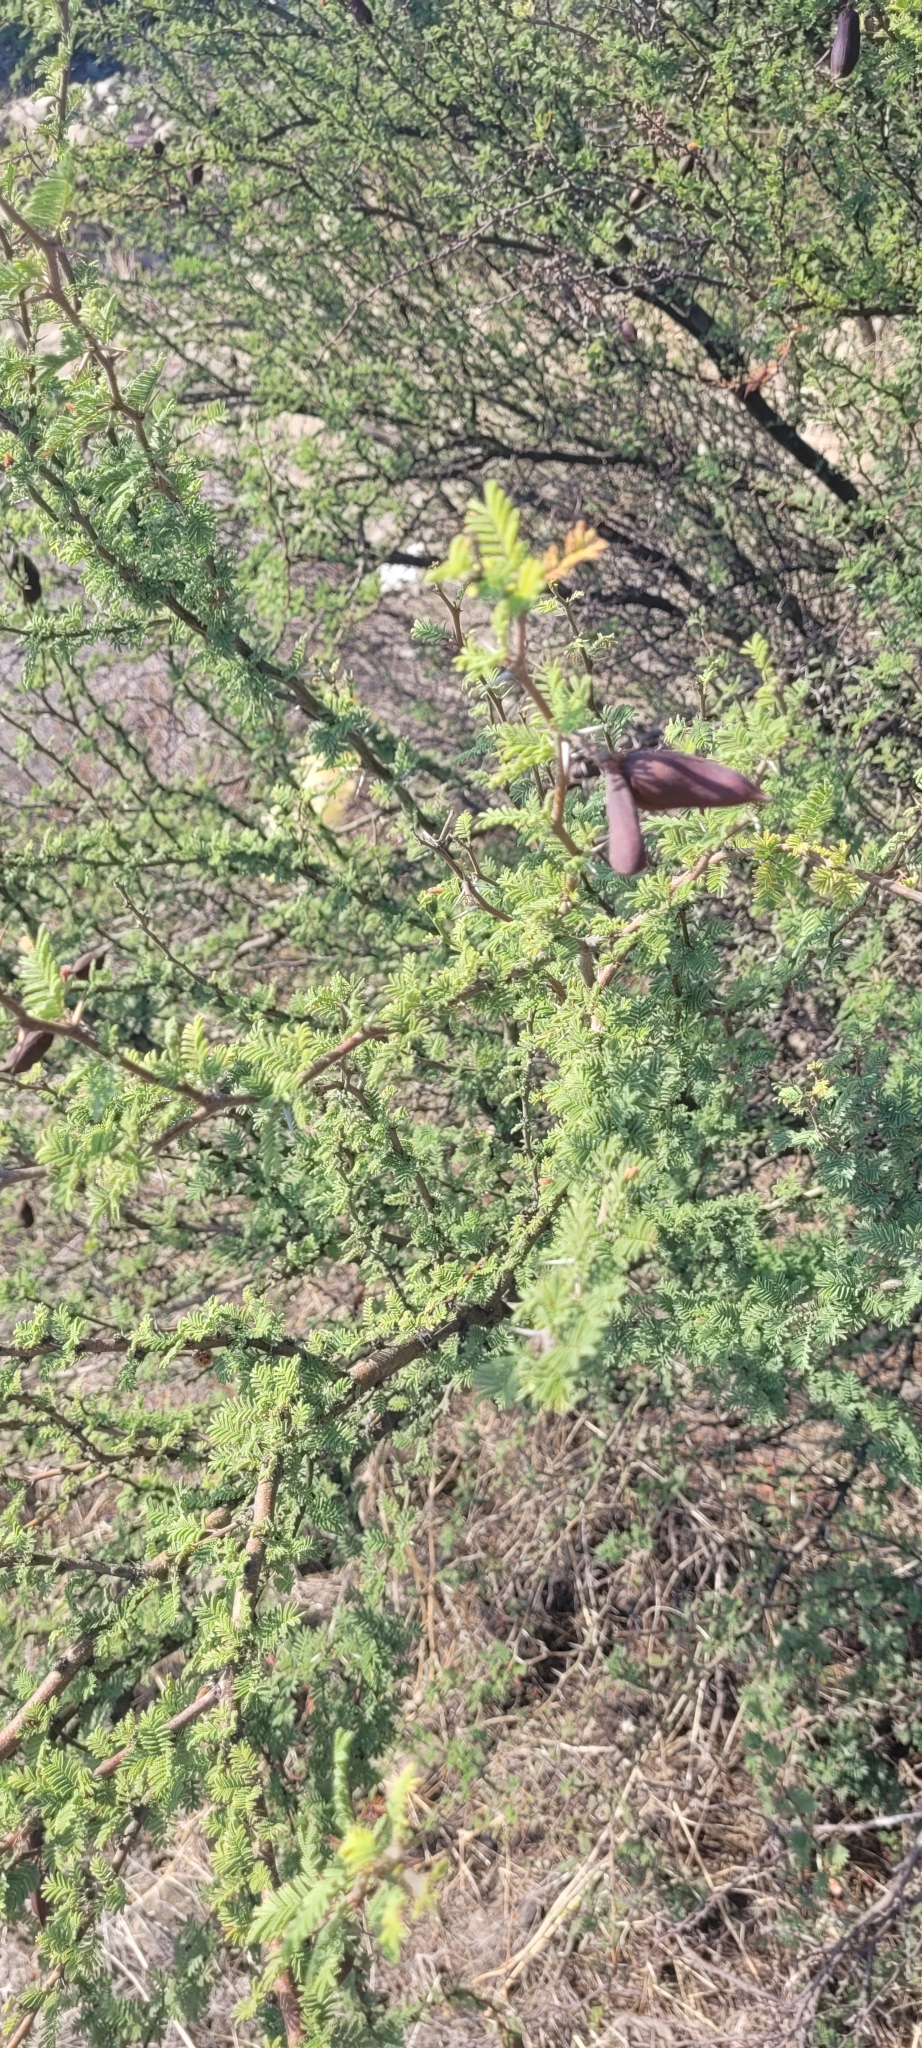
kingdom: Plantae
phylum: Tracheophyta
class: Magnoliopsida
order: Fabales
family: Fabaceae
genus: Vachellia
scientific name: Vachellia caven
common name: Roman cassie
